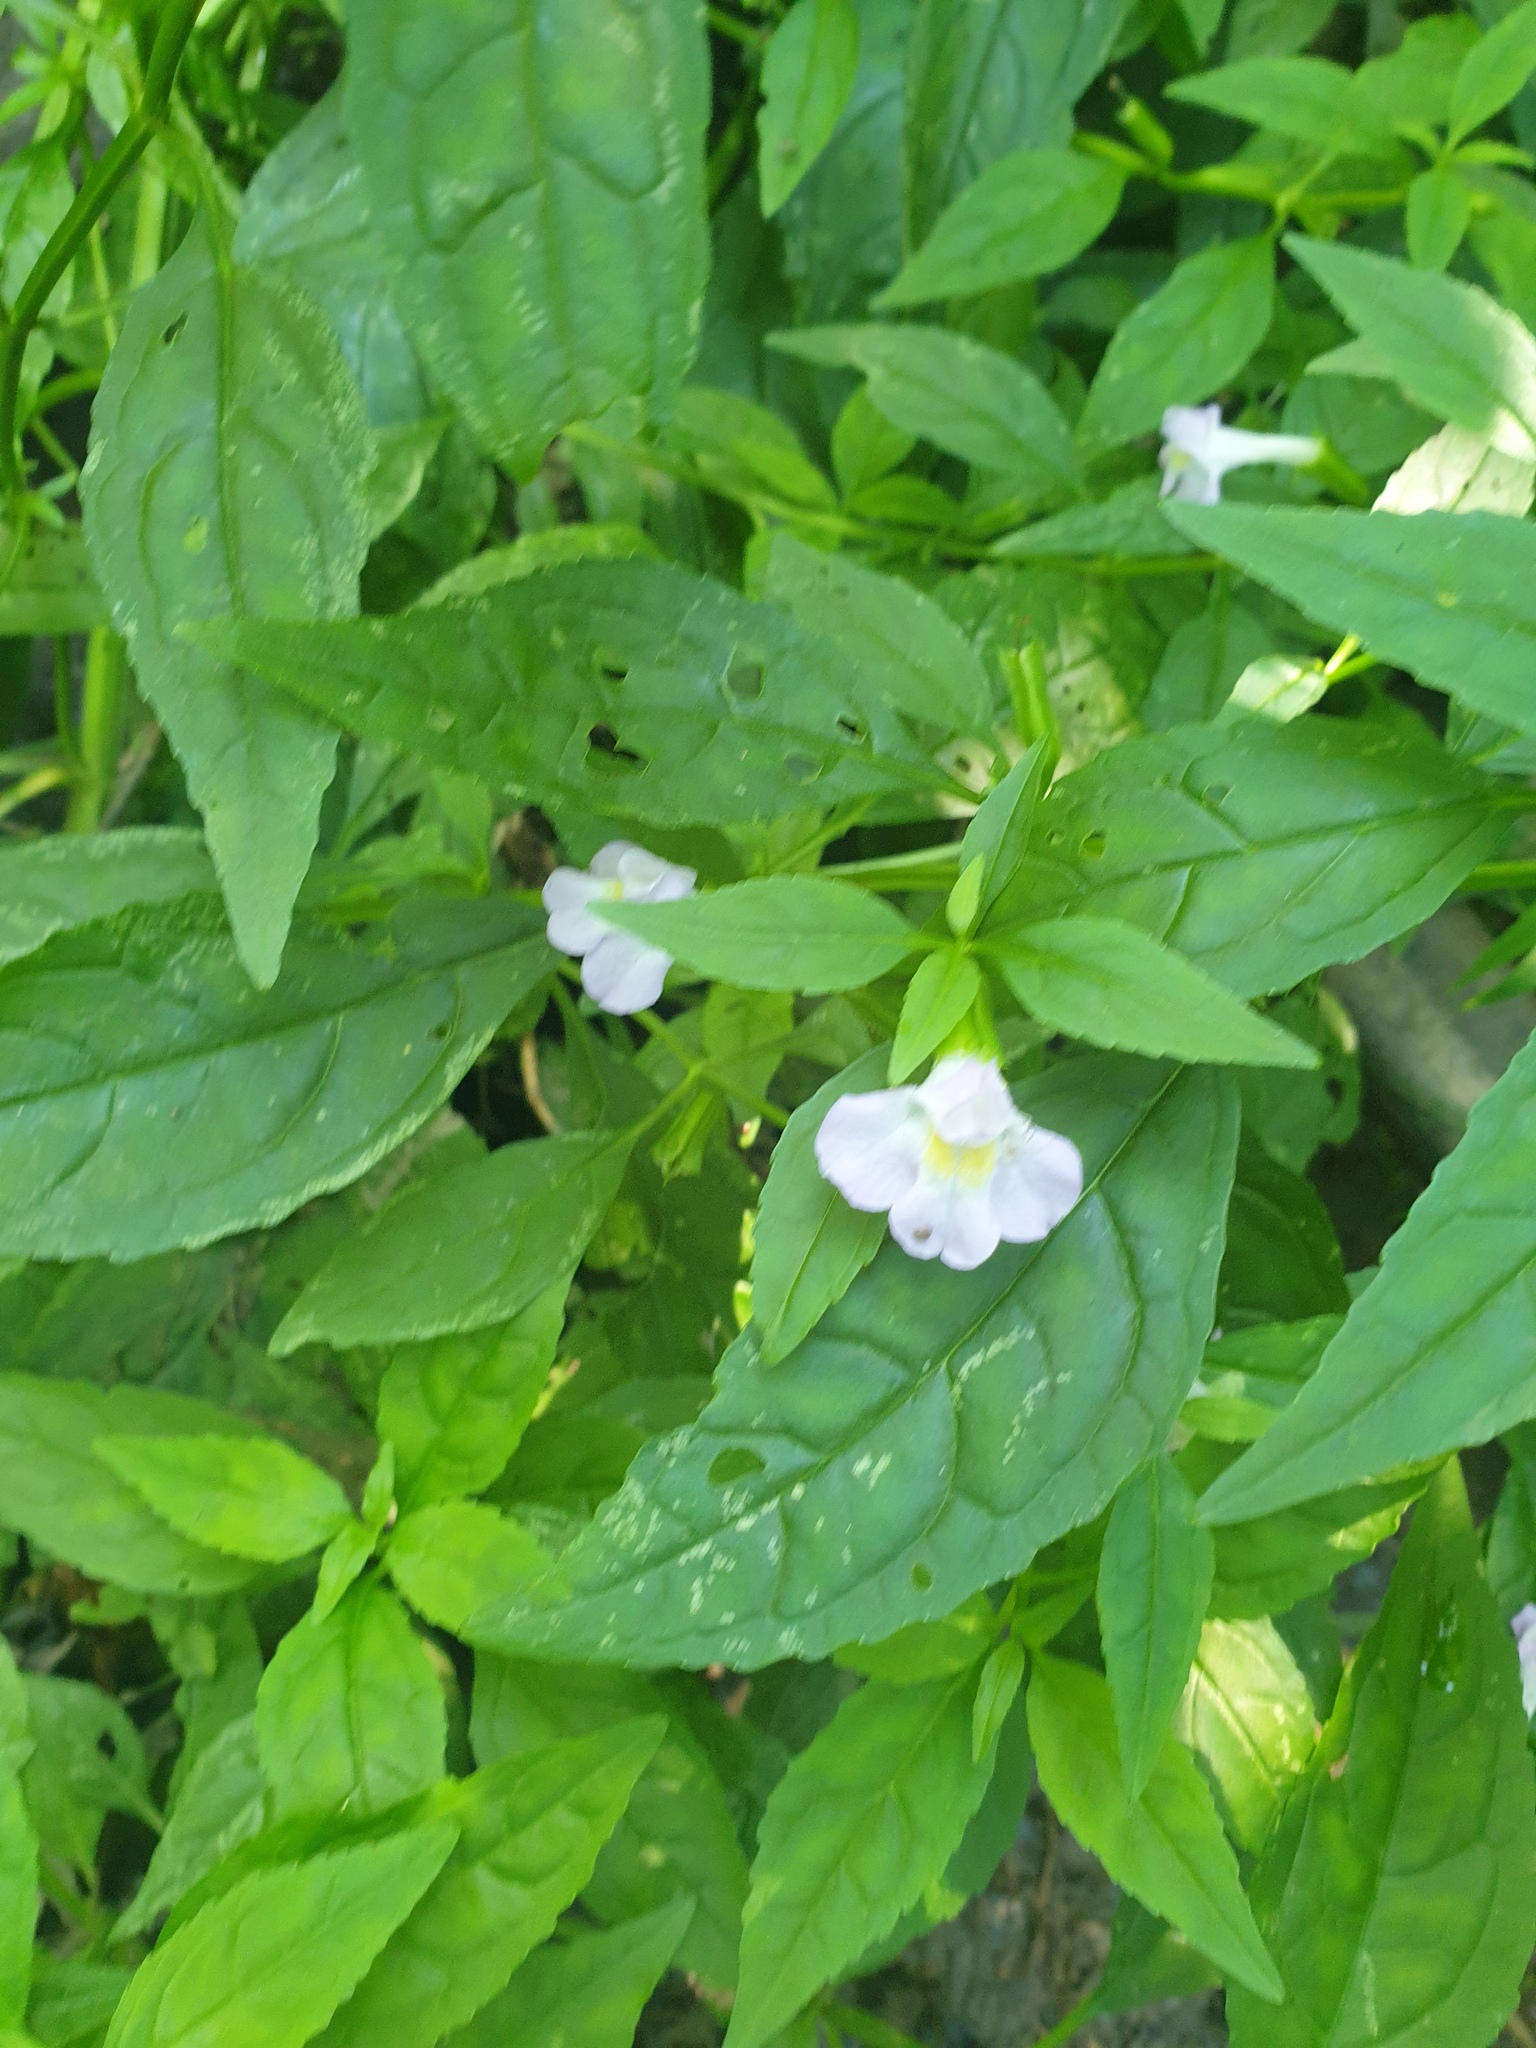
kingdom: Plantae
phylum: Tracheophyta
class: Magnoliopsida
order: Lamiales
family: Phrymaceae
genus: Mimulus
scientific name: Mimulus alatus
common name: Sharp-wing monkey-flower
